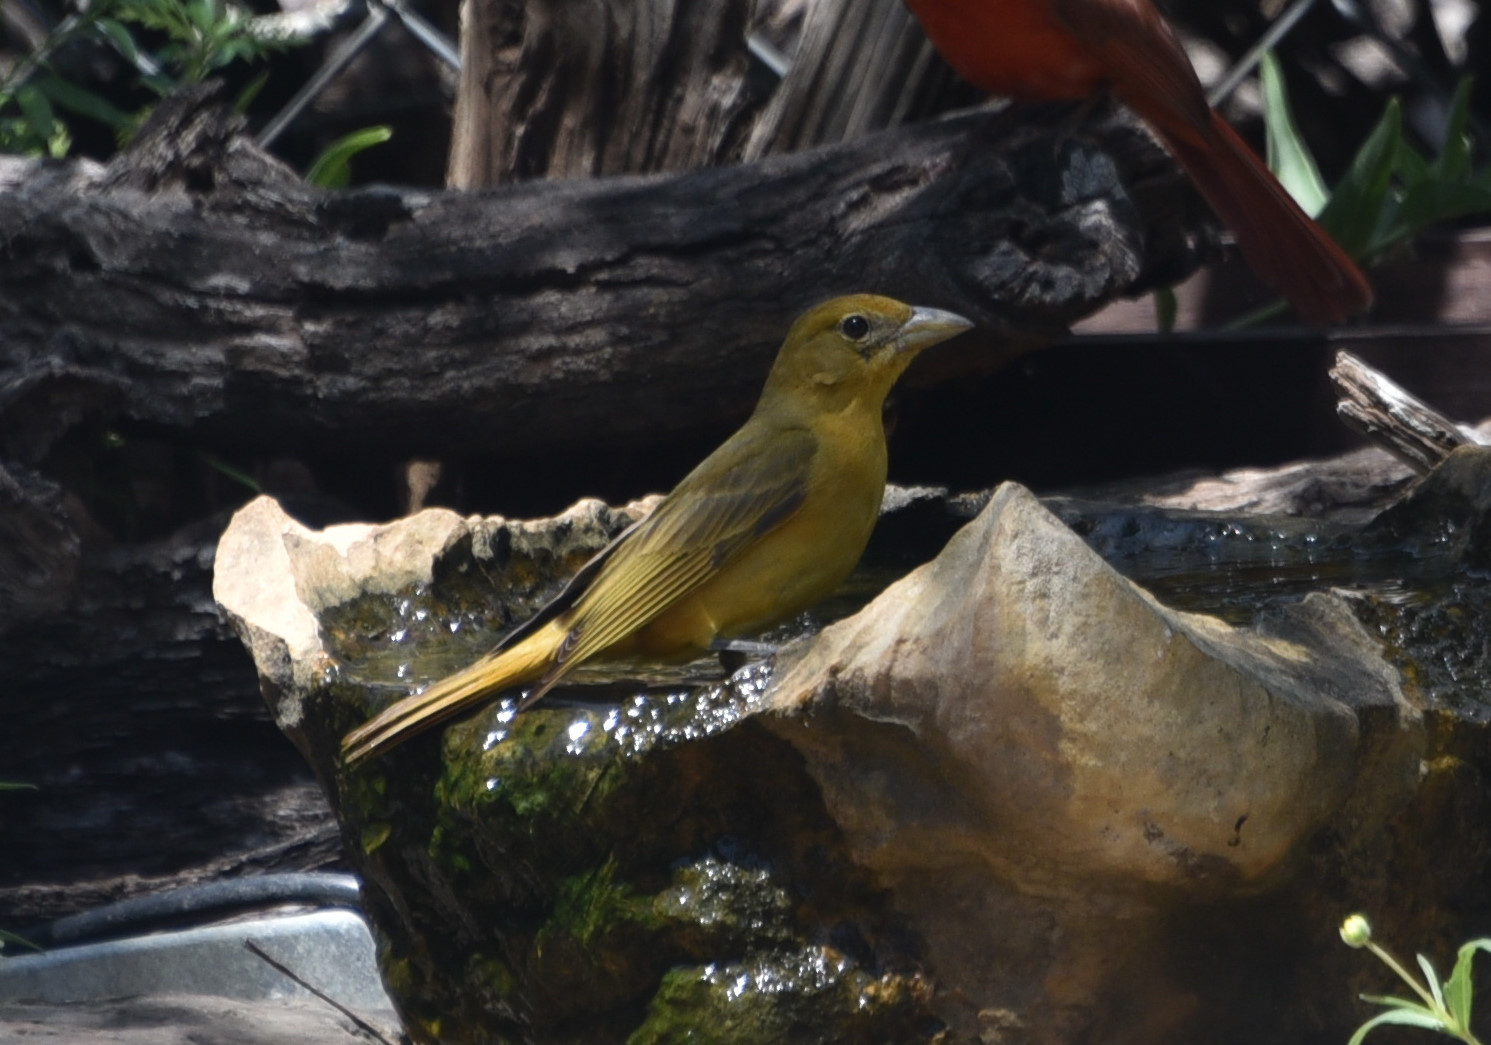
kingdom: Animalia
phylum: Chordata
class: Aves
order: Passeriformes
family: Cardinalidae
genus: Piranga
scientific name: Piranga rubra
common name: Summer tanager
